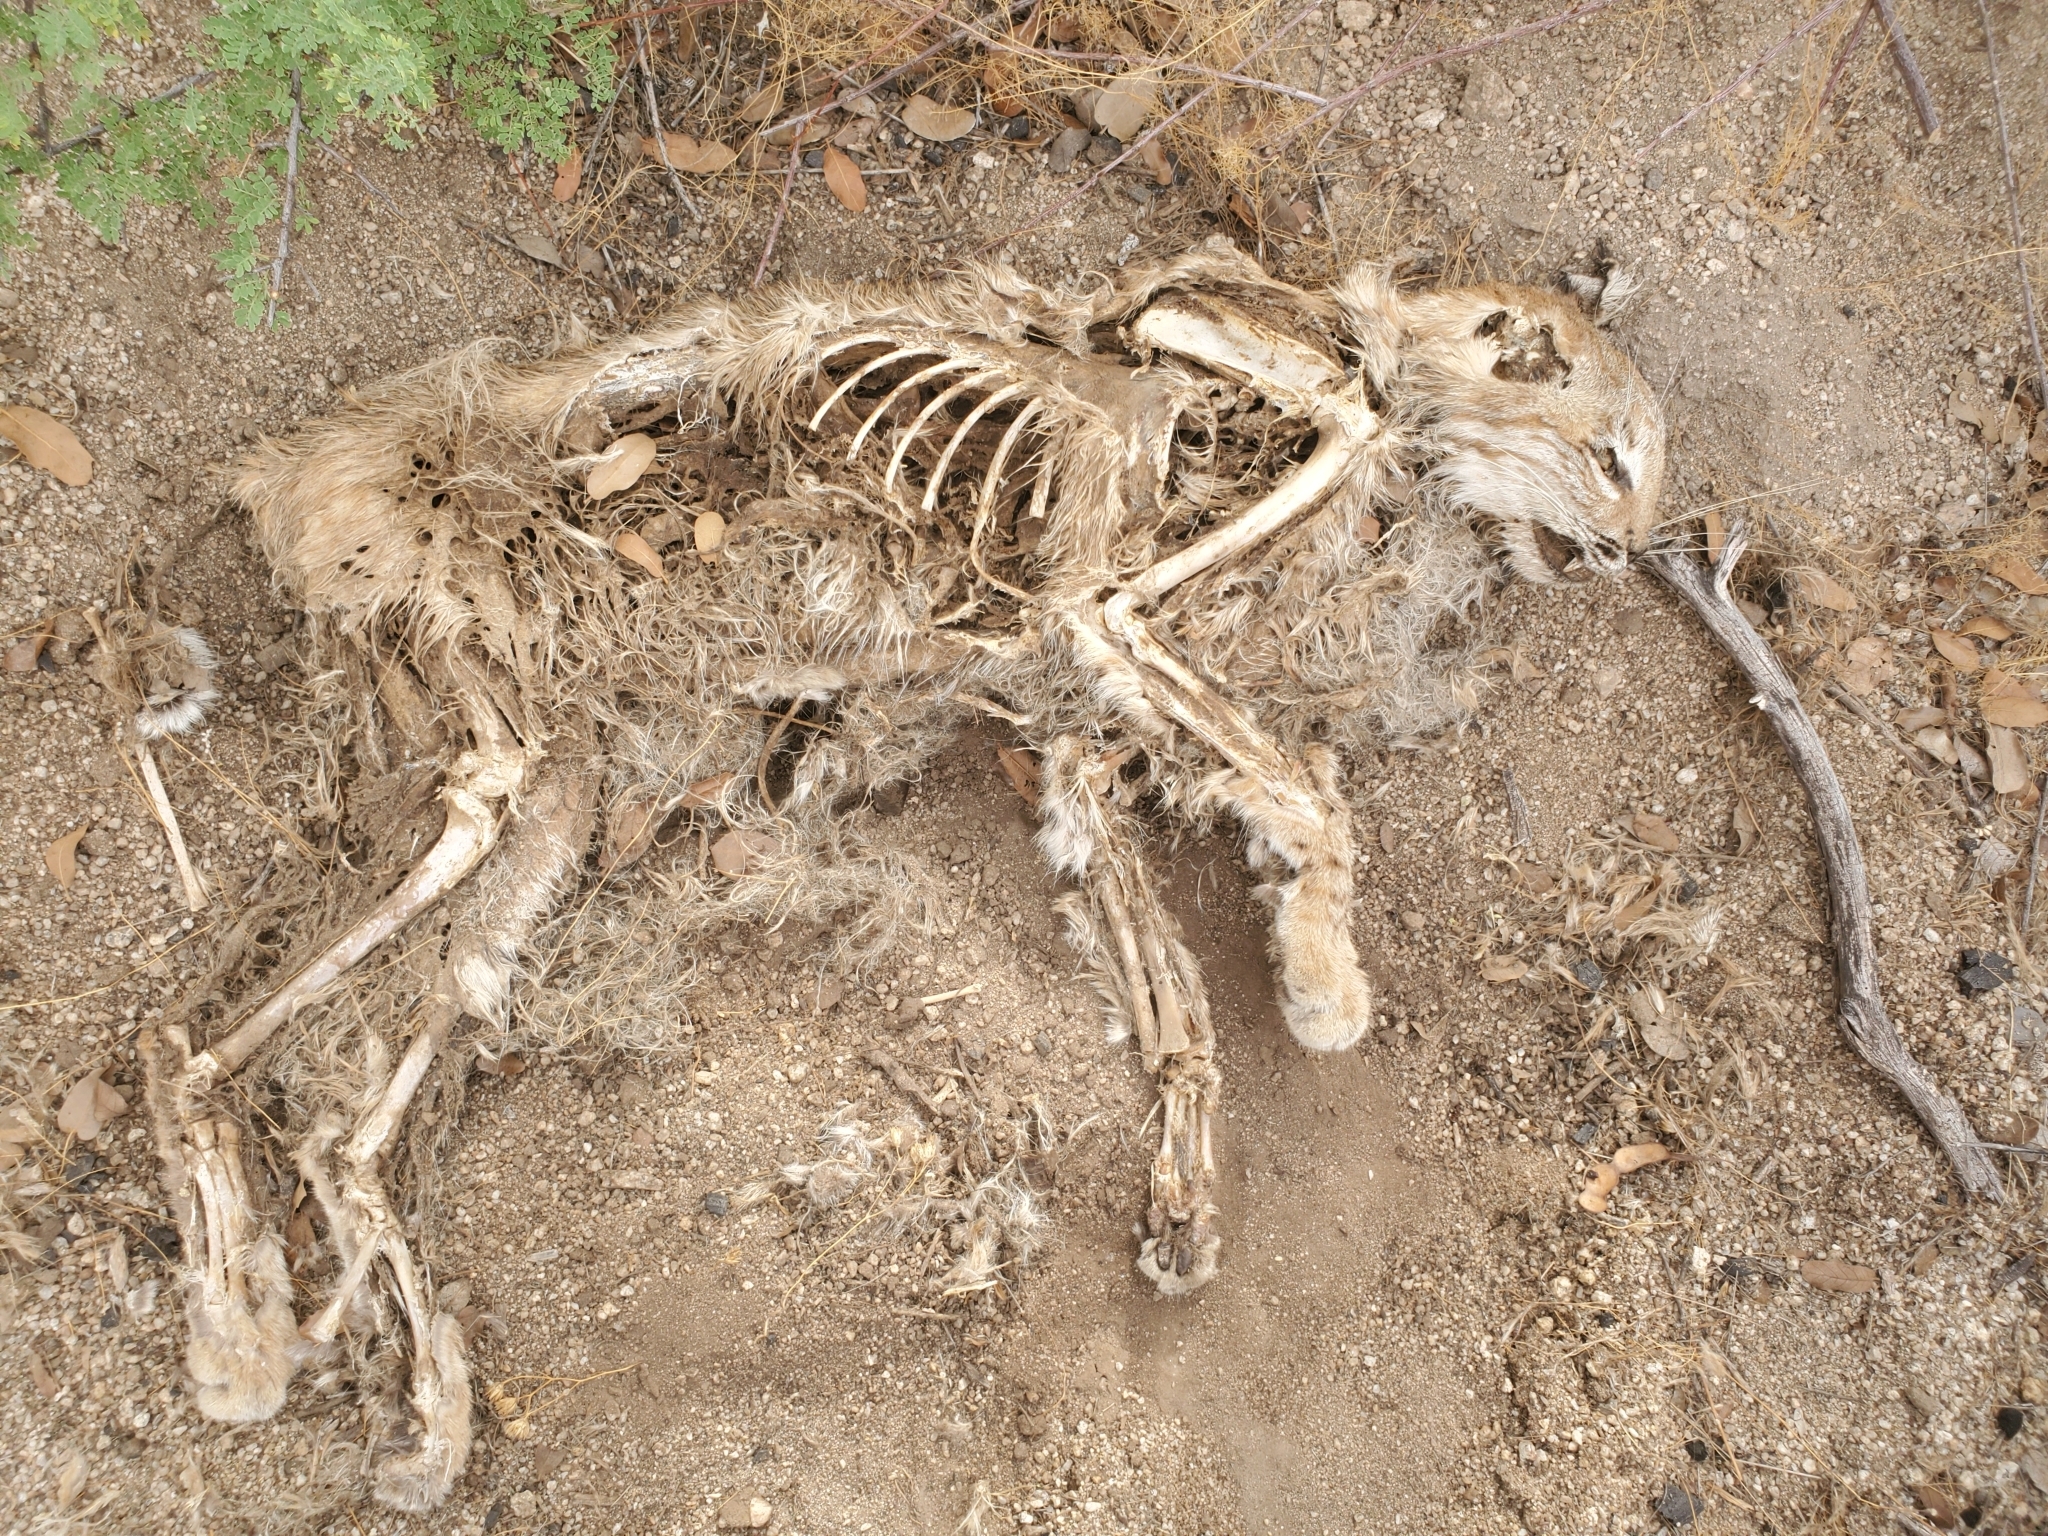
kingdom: Animalia
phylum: Chordata
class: Mammalia
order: Carnivora
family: Felidae
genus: Lynx
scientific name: Lynx rufus
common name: Bobcat
